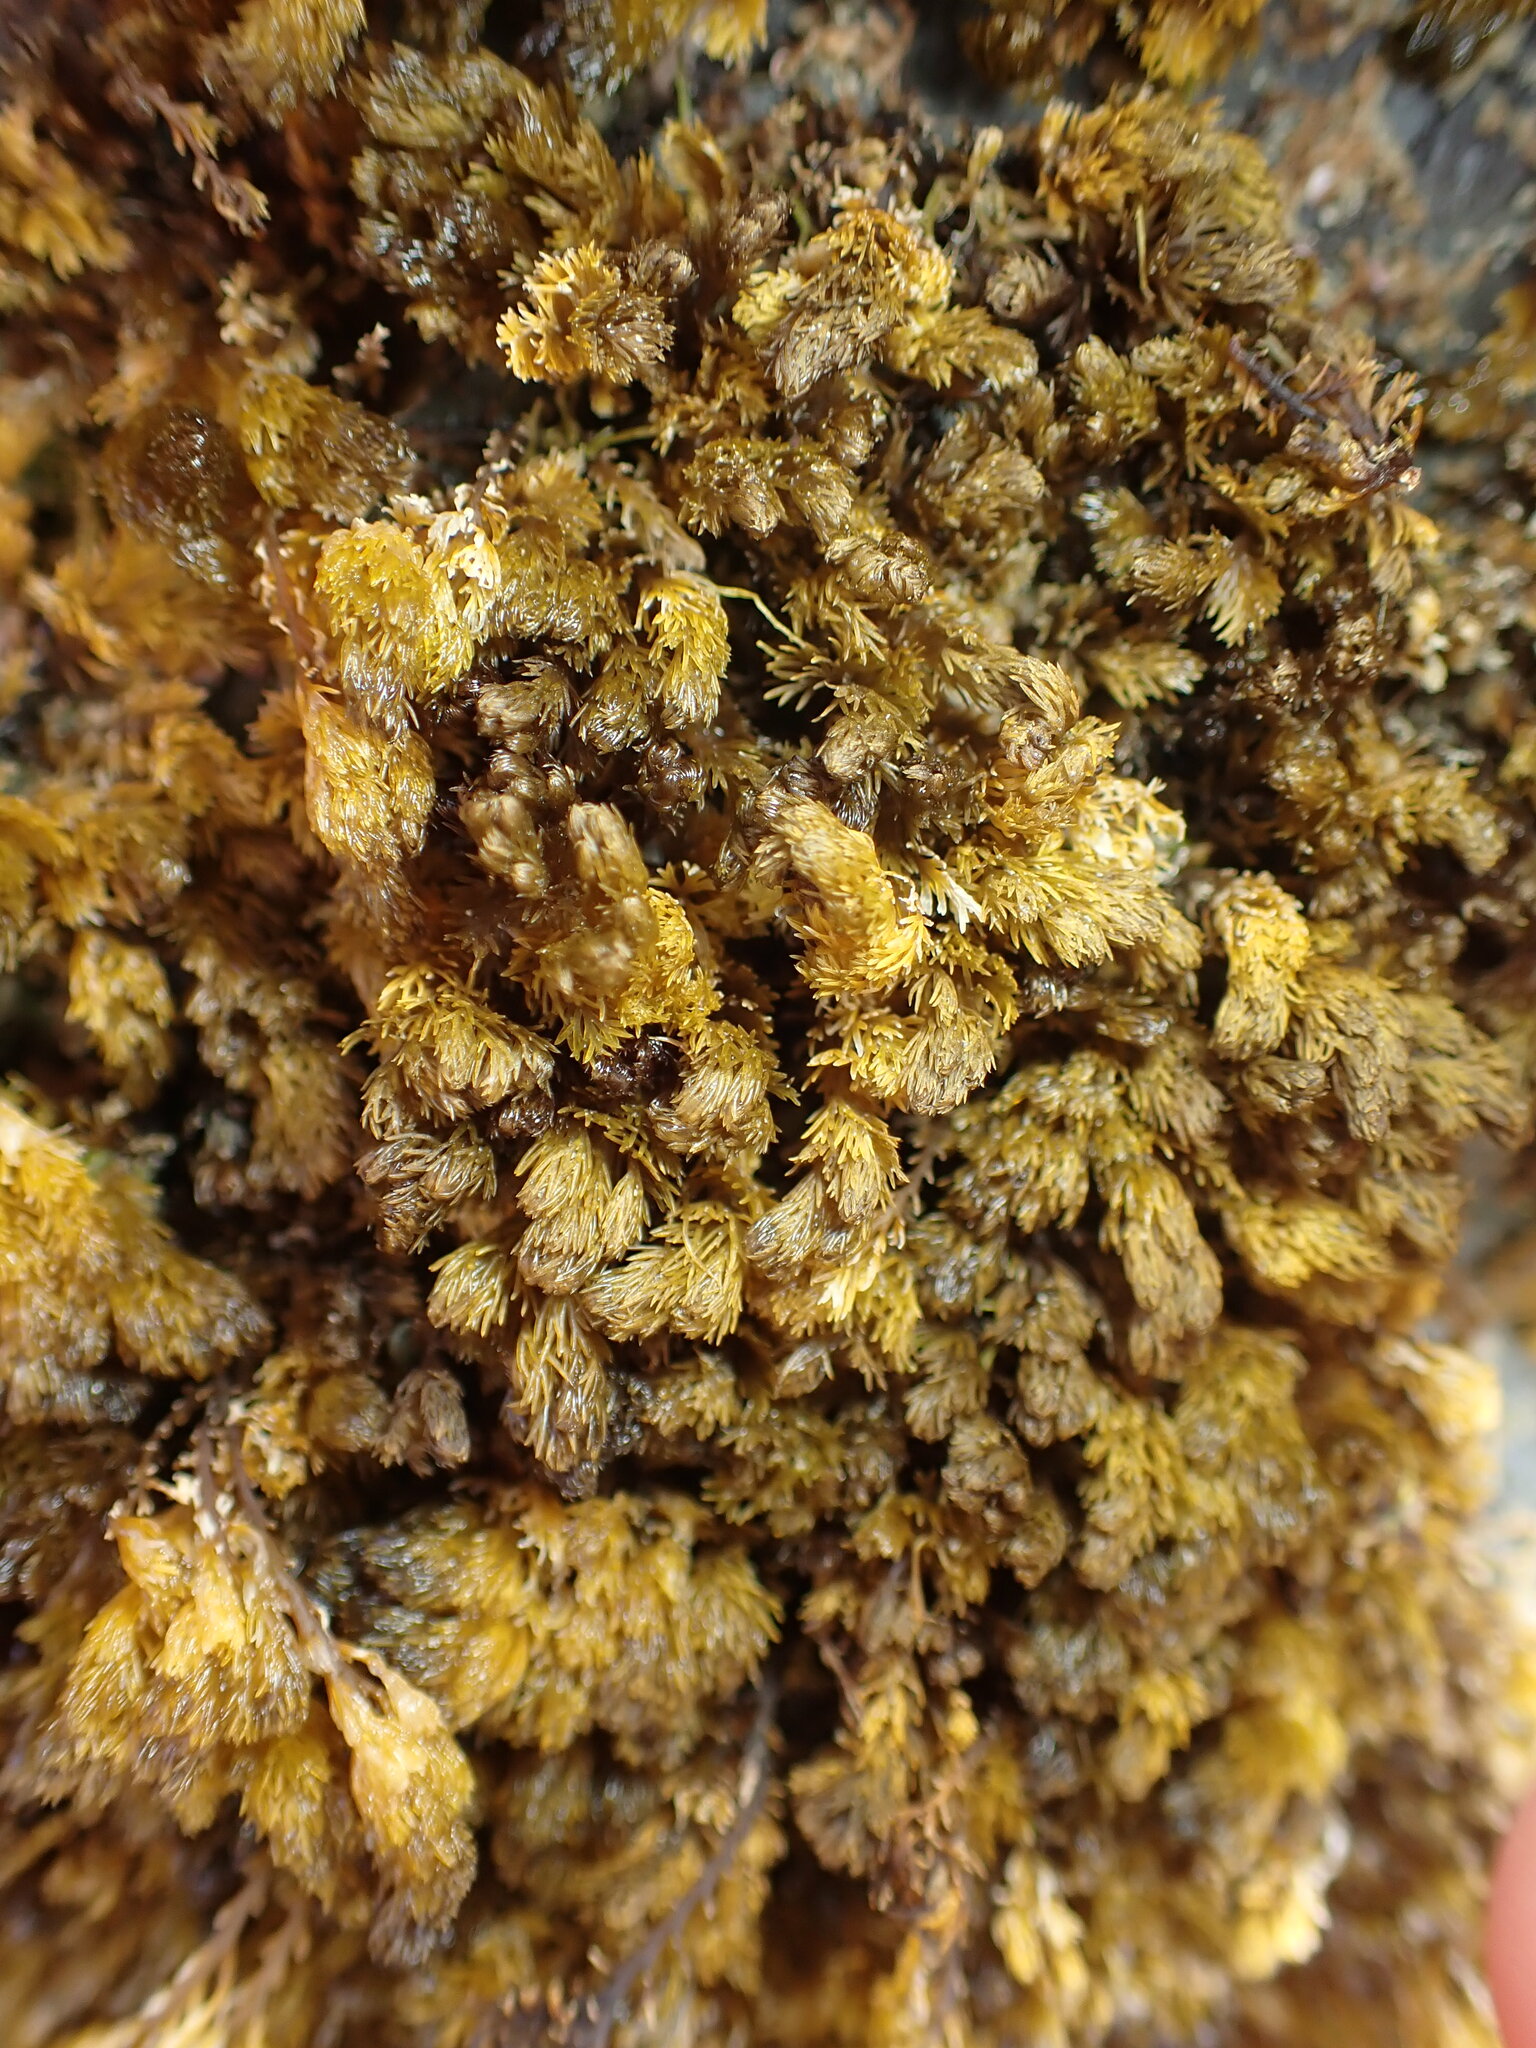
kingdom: Plantae
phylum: Rhodophyta
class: Florideophyceae
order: Ceramiales
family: Rhodomelaceae
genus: Bostrychia
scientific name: Bostrychia arbuscula
